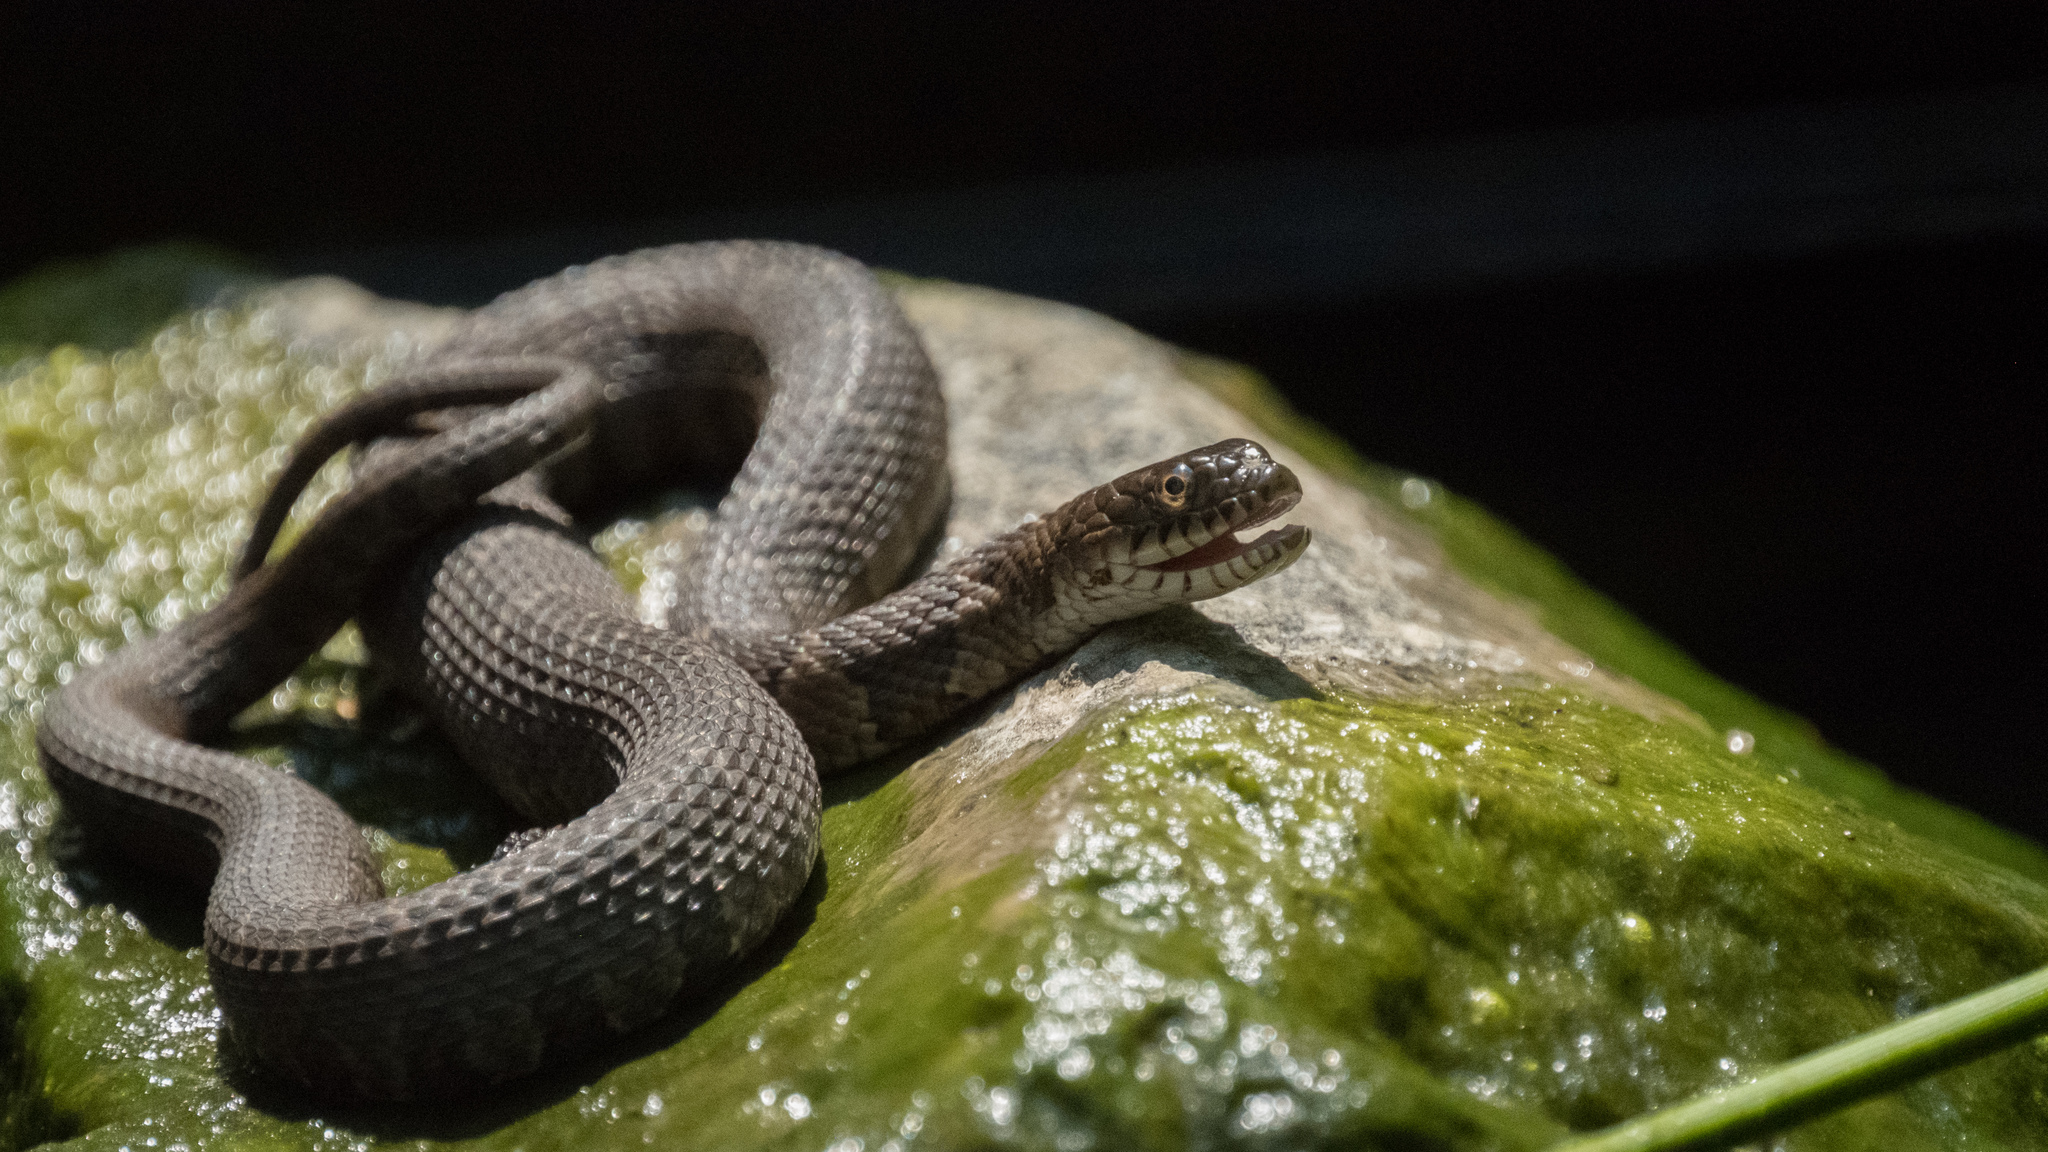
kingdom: Animalia
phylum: Chordata
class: Squamata
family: Colubridae
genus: Nerodia
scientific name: Nerodia sipedon
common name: Northern water snake
